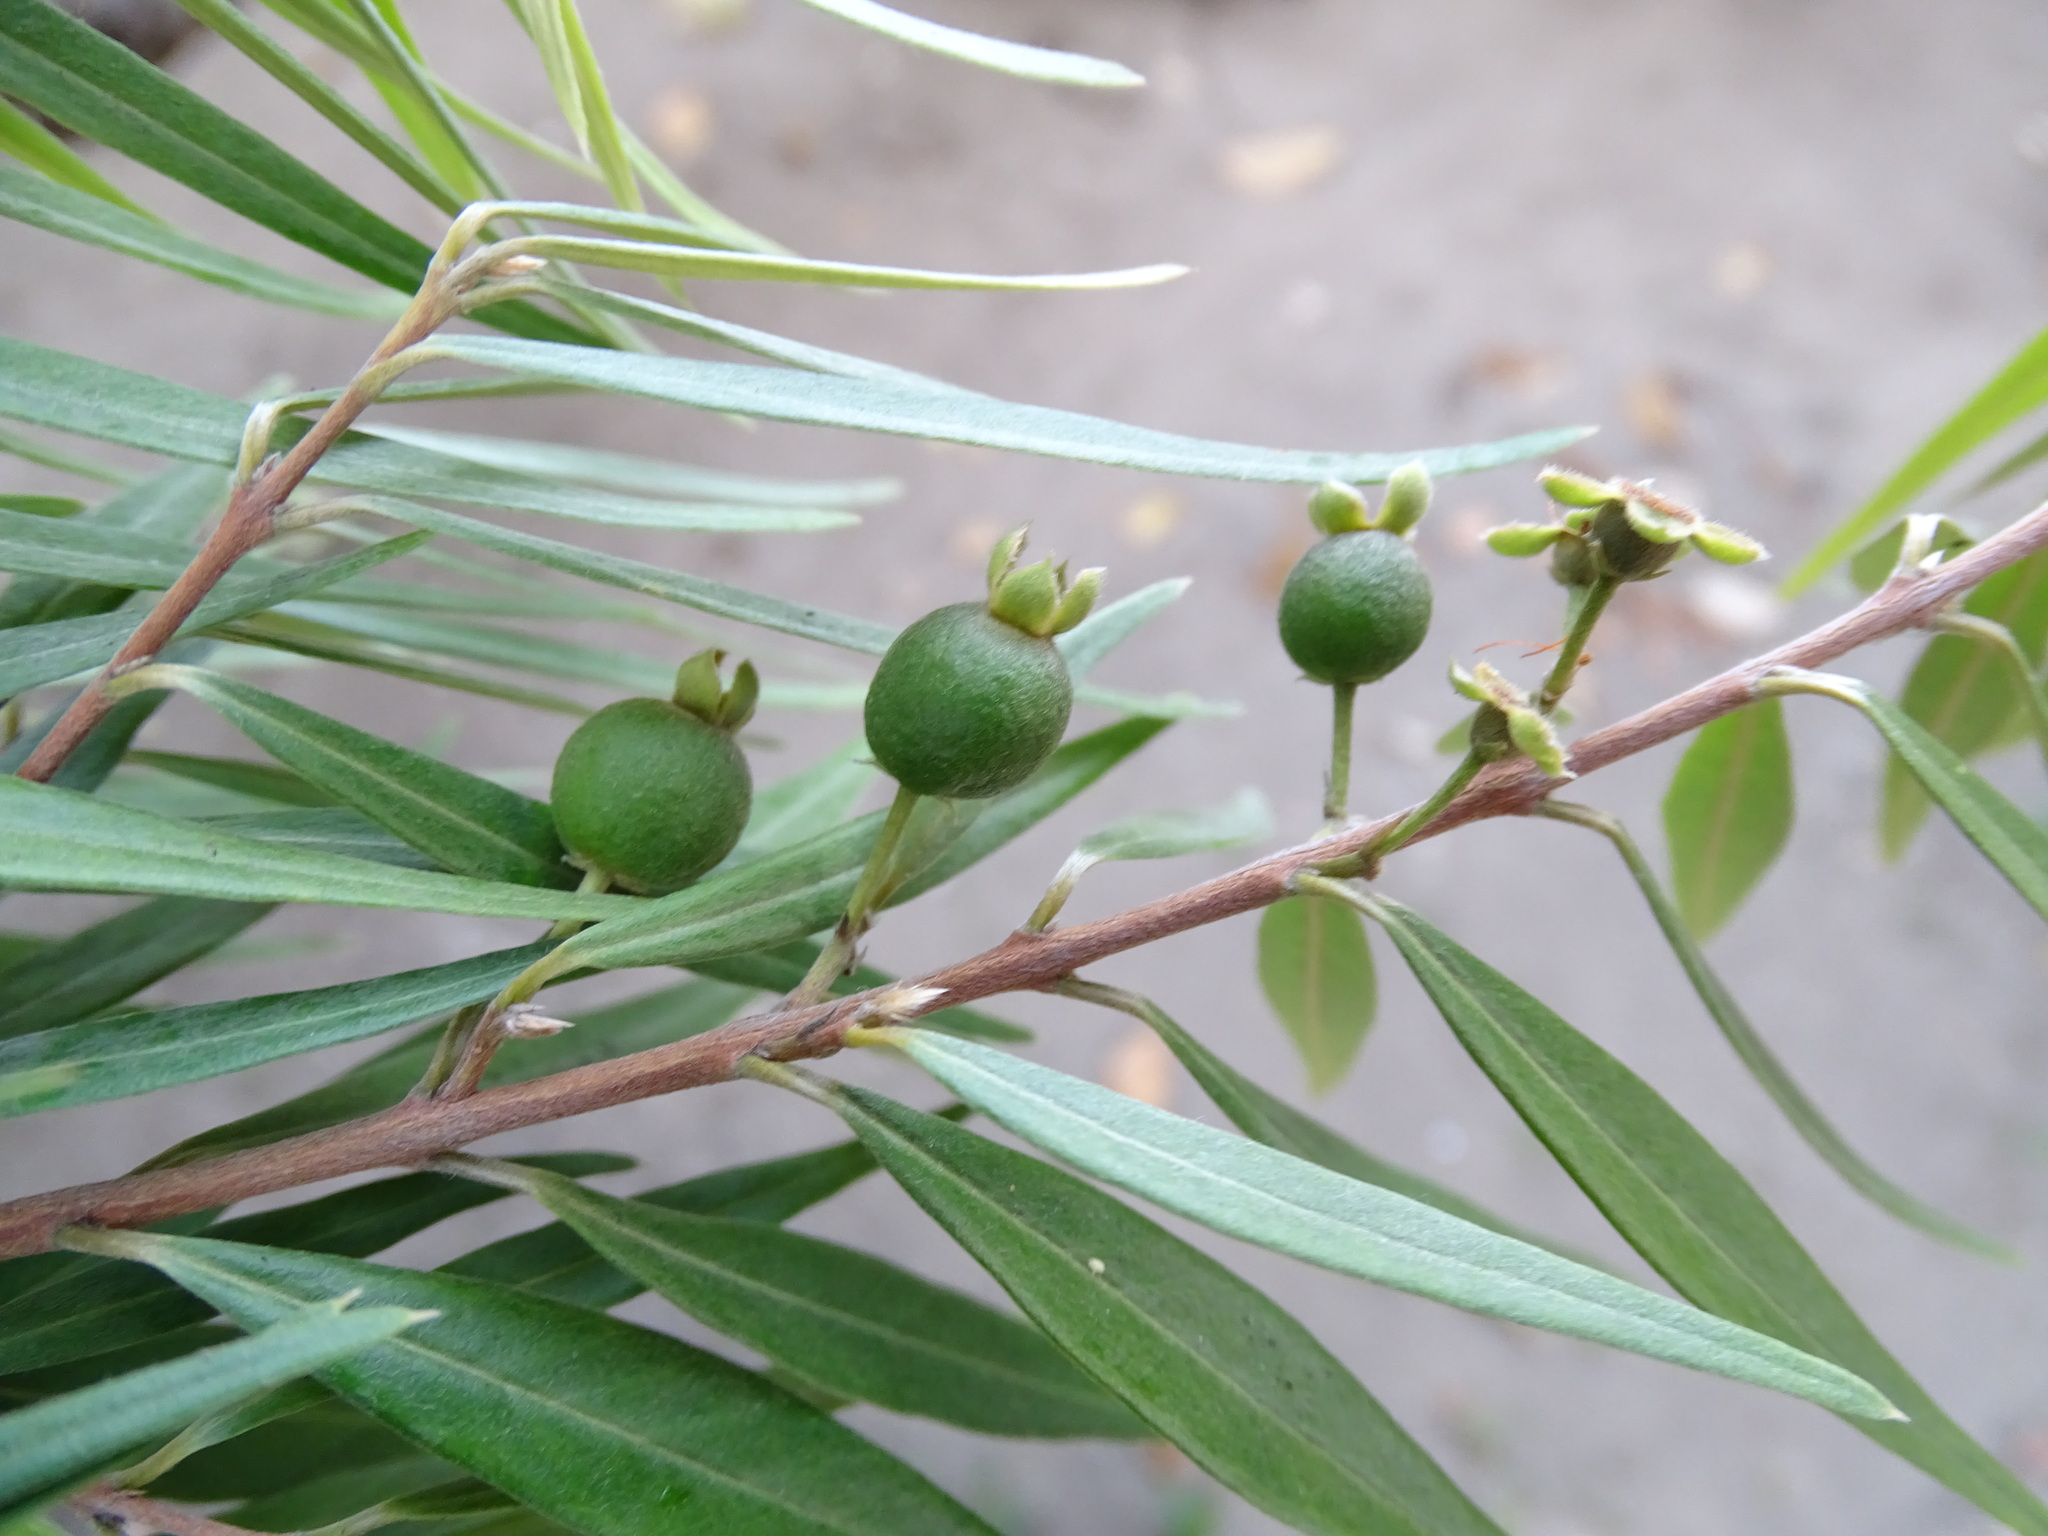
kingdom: Plantae
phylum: Tracheophyta
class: Magnoliopsida
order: Myrtales
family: Myrtaceae
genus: Eugenia
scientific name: Eugenia biflora
